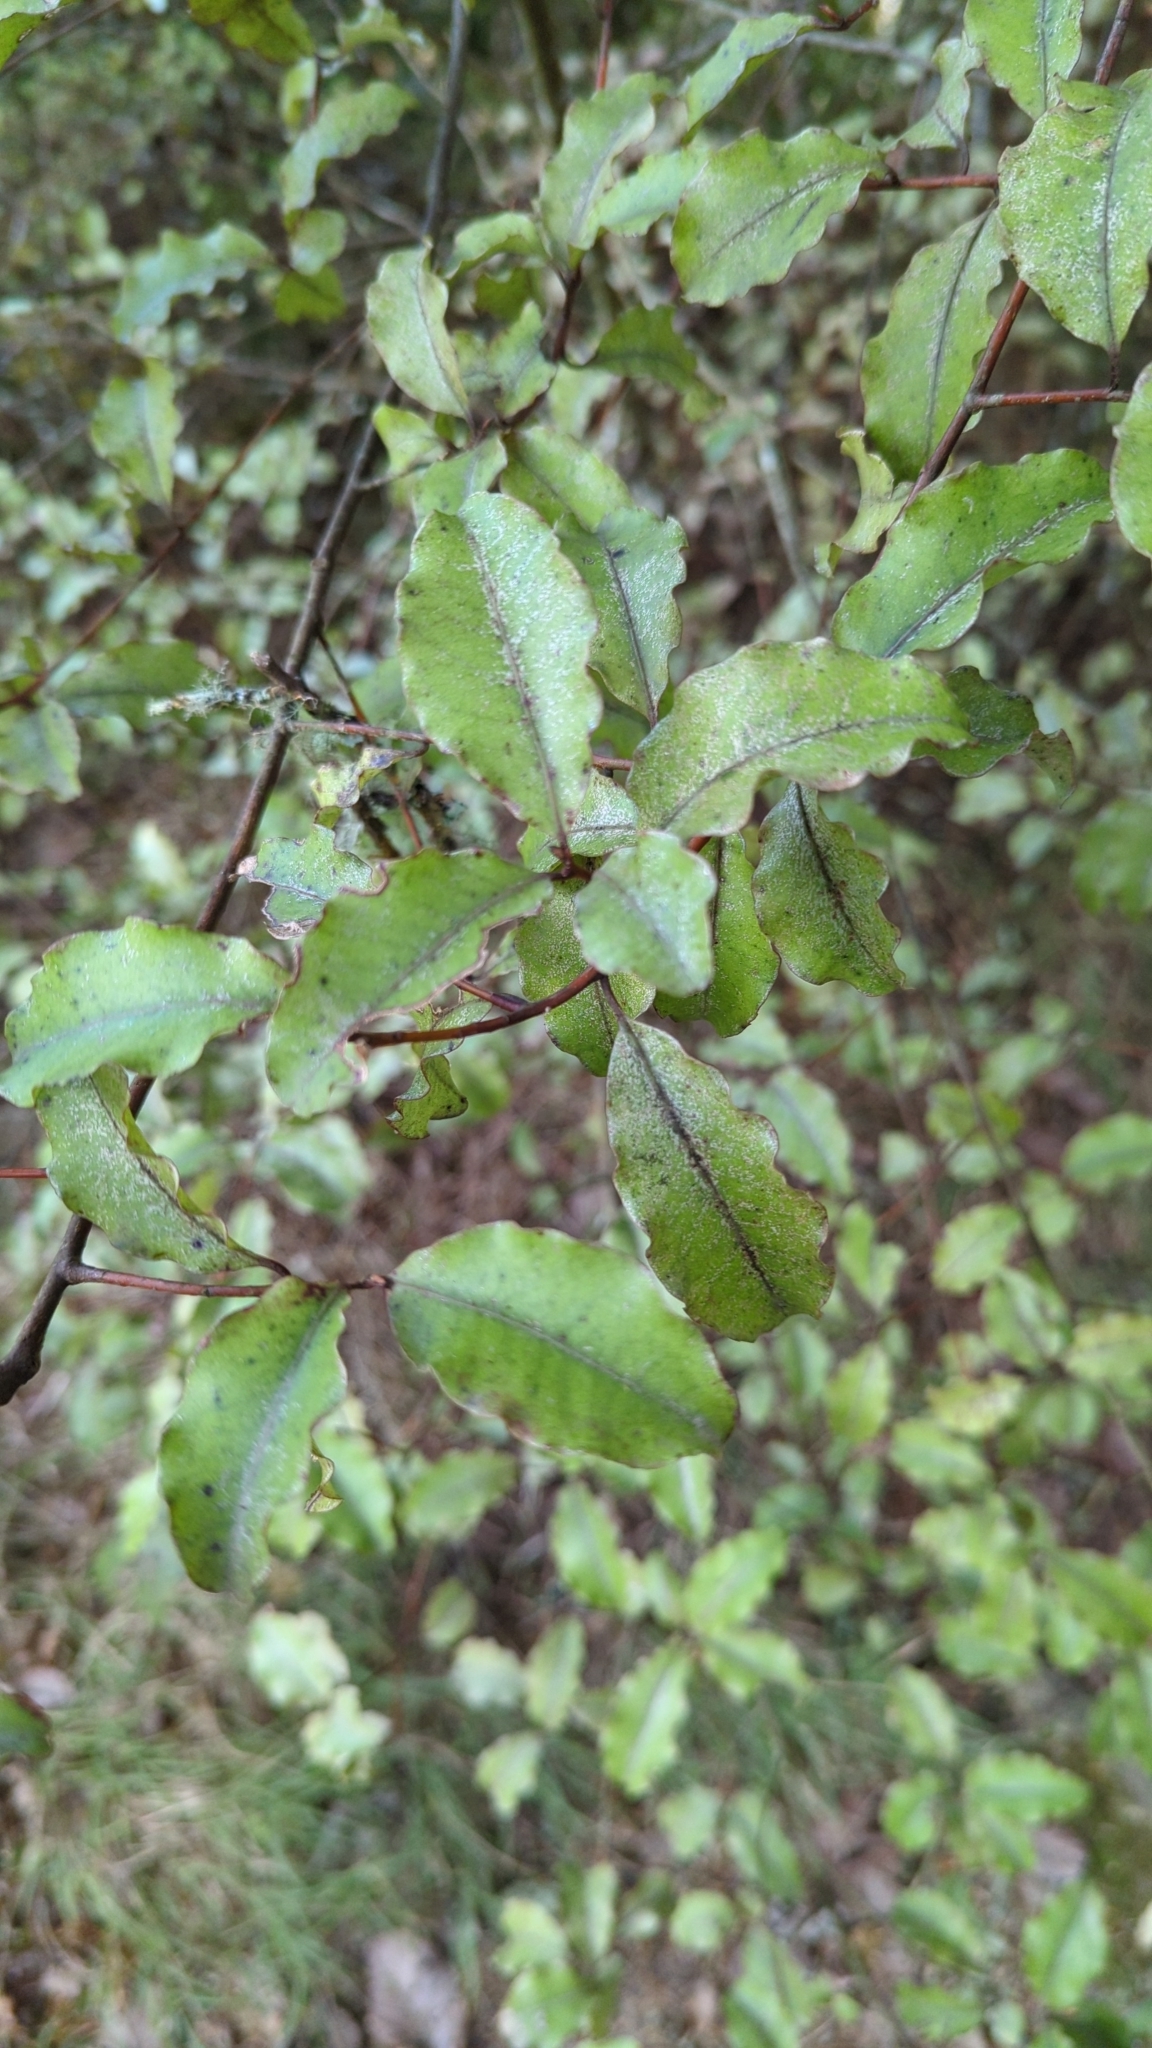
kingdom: Plantae
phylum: Tracheophyta
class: Magnoliopsida
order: Ericales
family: Primulaceae
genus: Myrsine
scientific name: Myrsine australis
